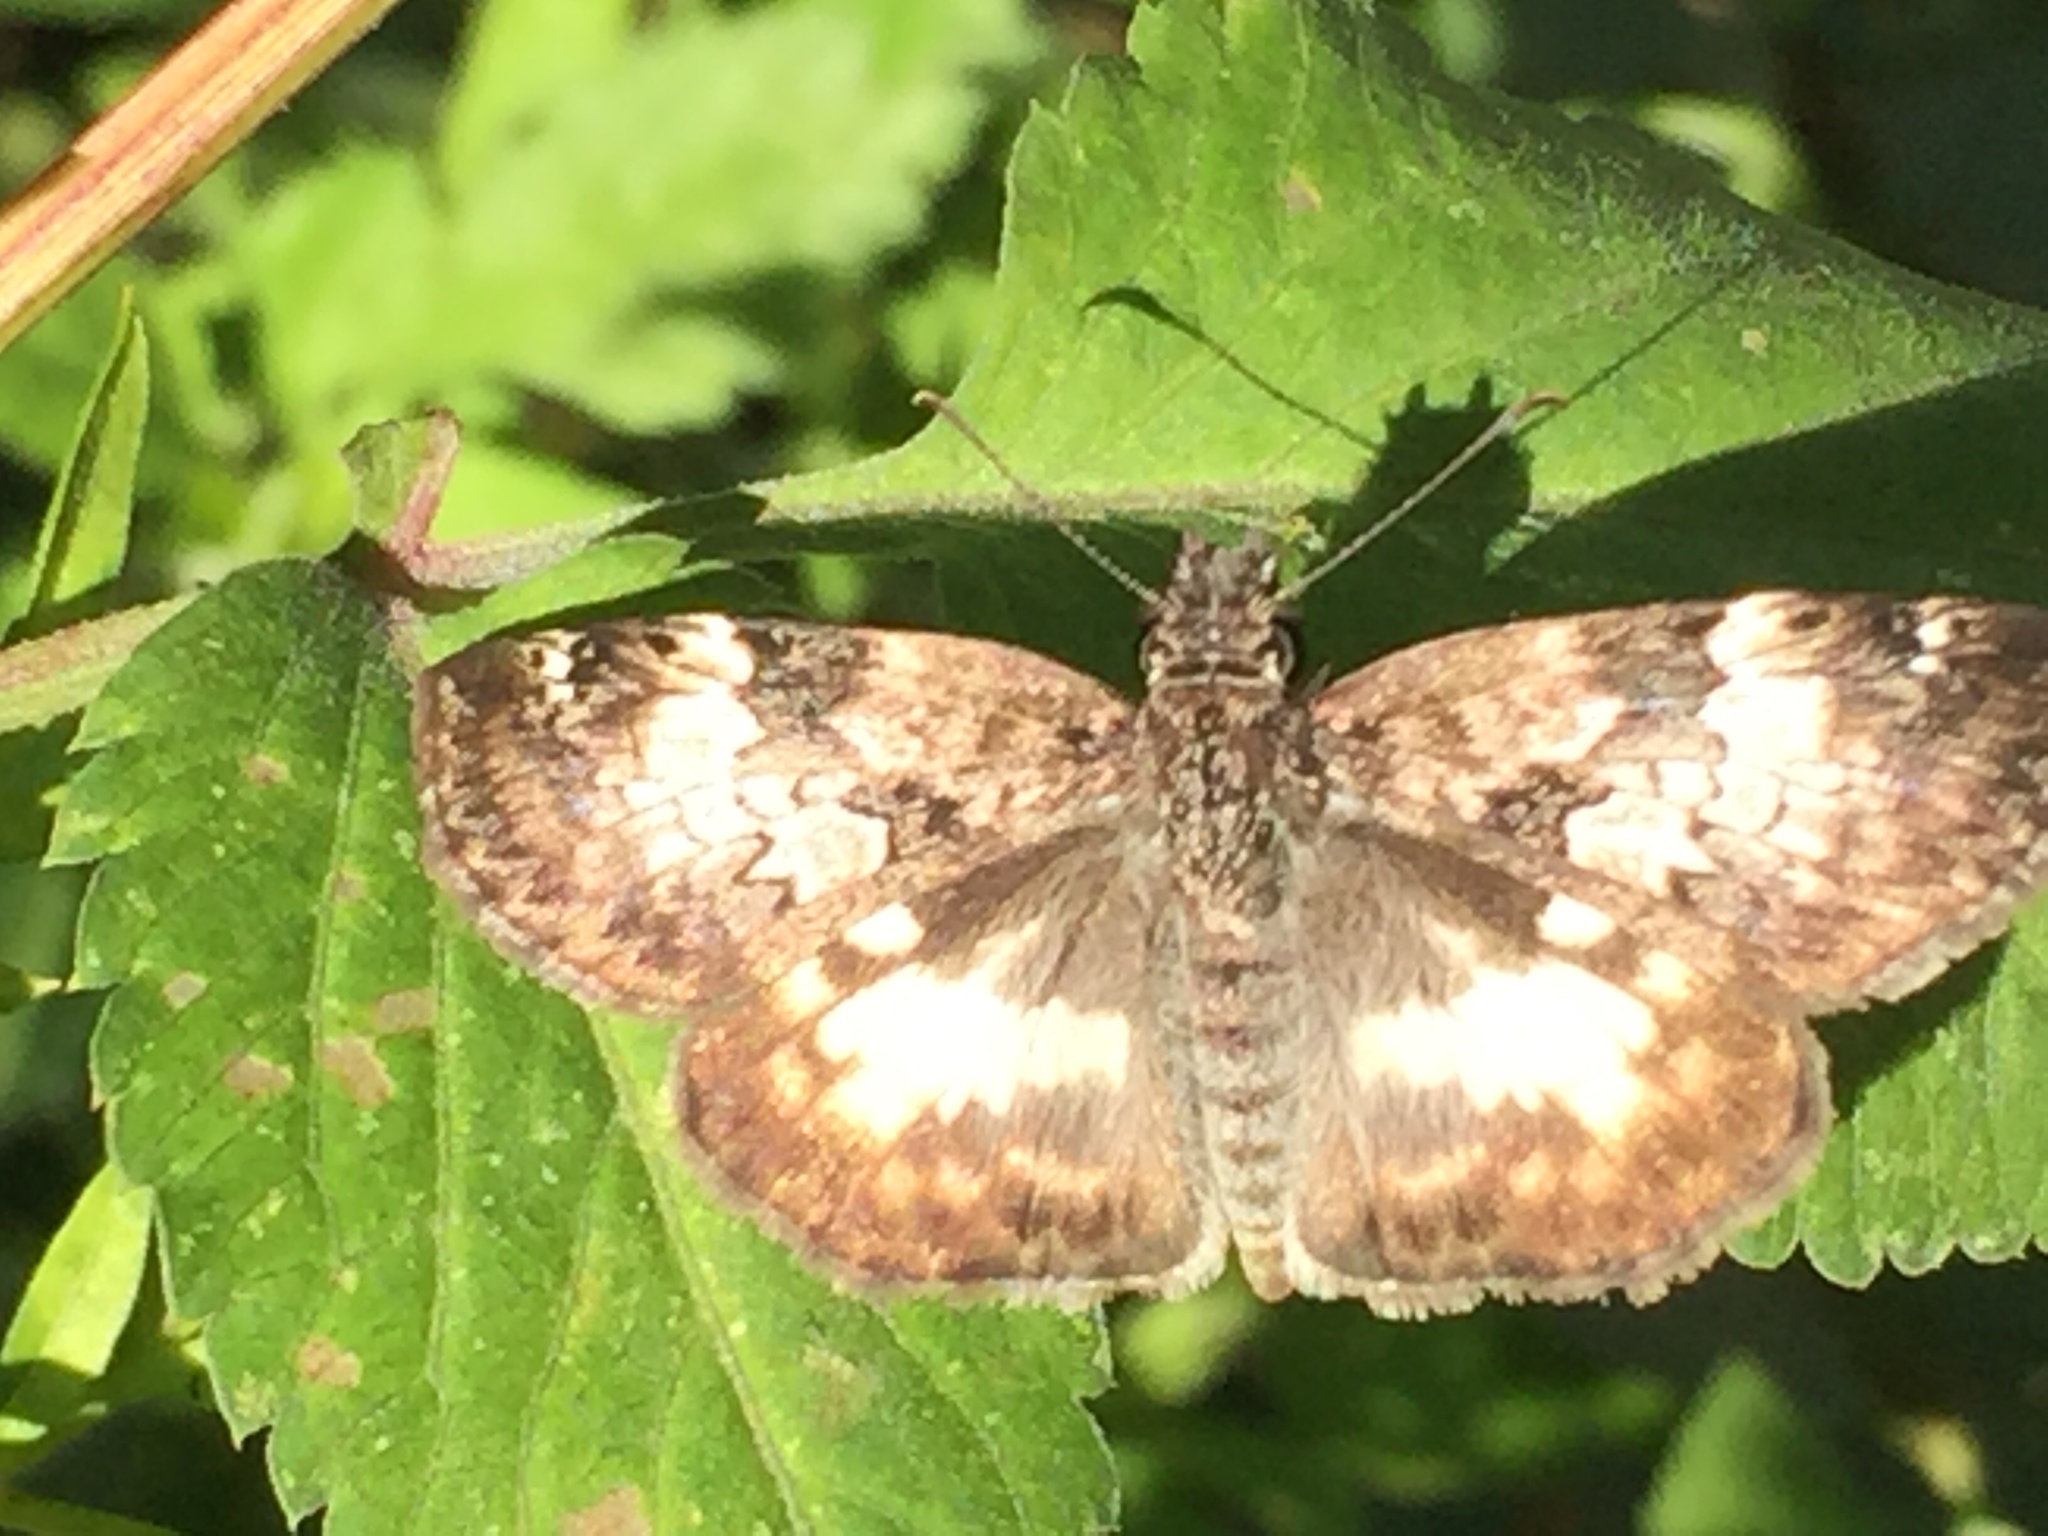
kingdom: Animalia
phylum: Arthropoda
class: Insecta
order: Lepidoptera
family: Hesperiidae
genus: Chiothion
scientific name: Chiothion georgina
